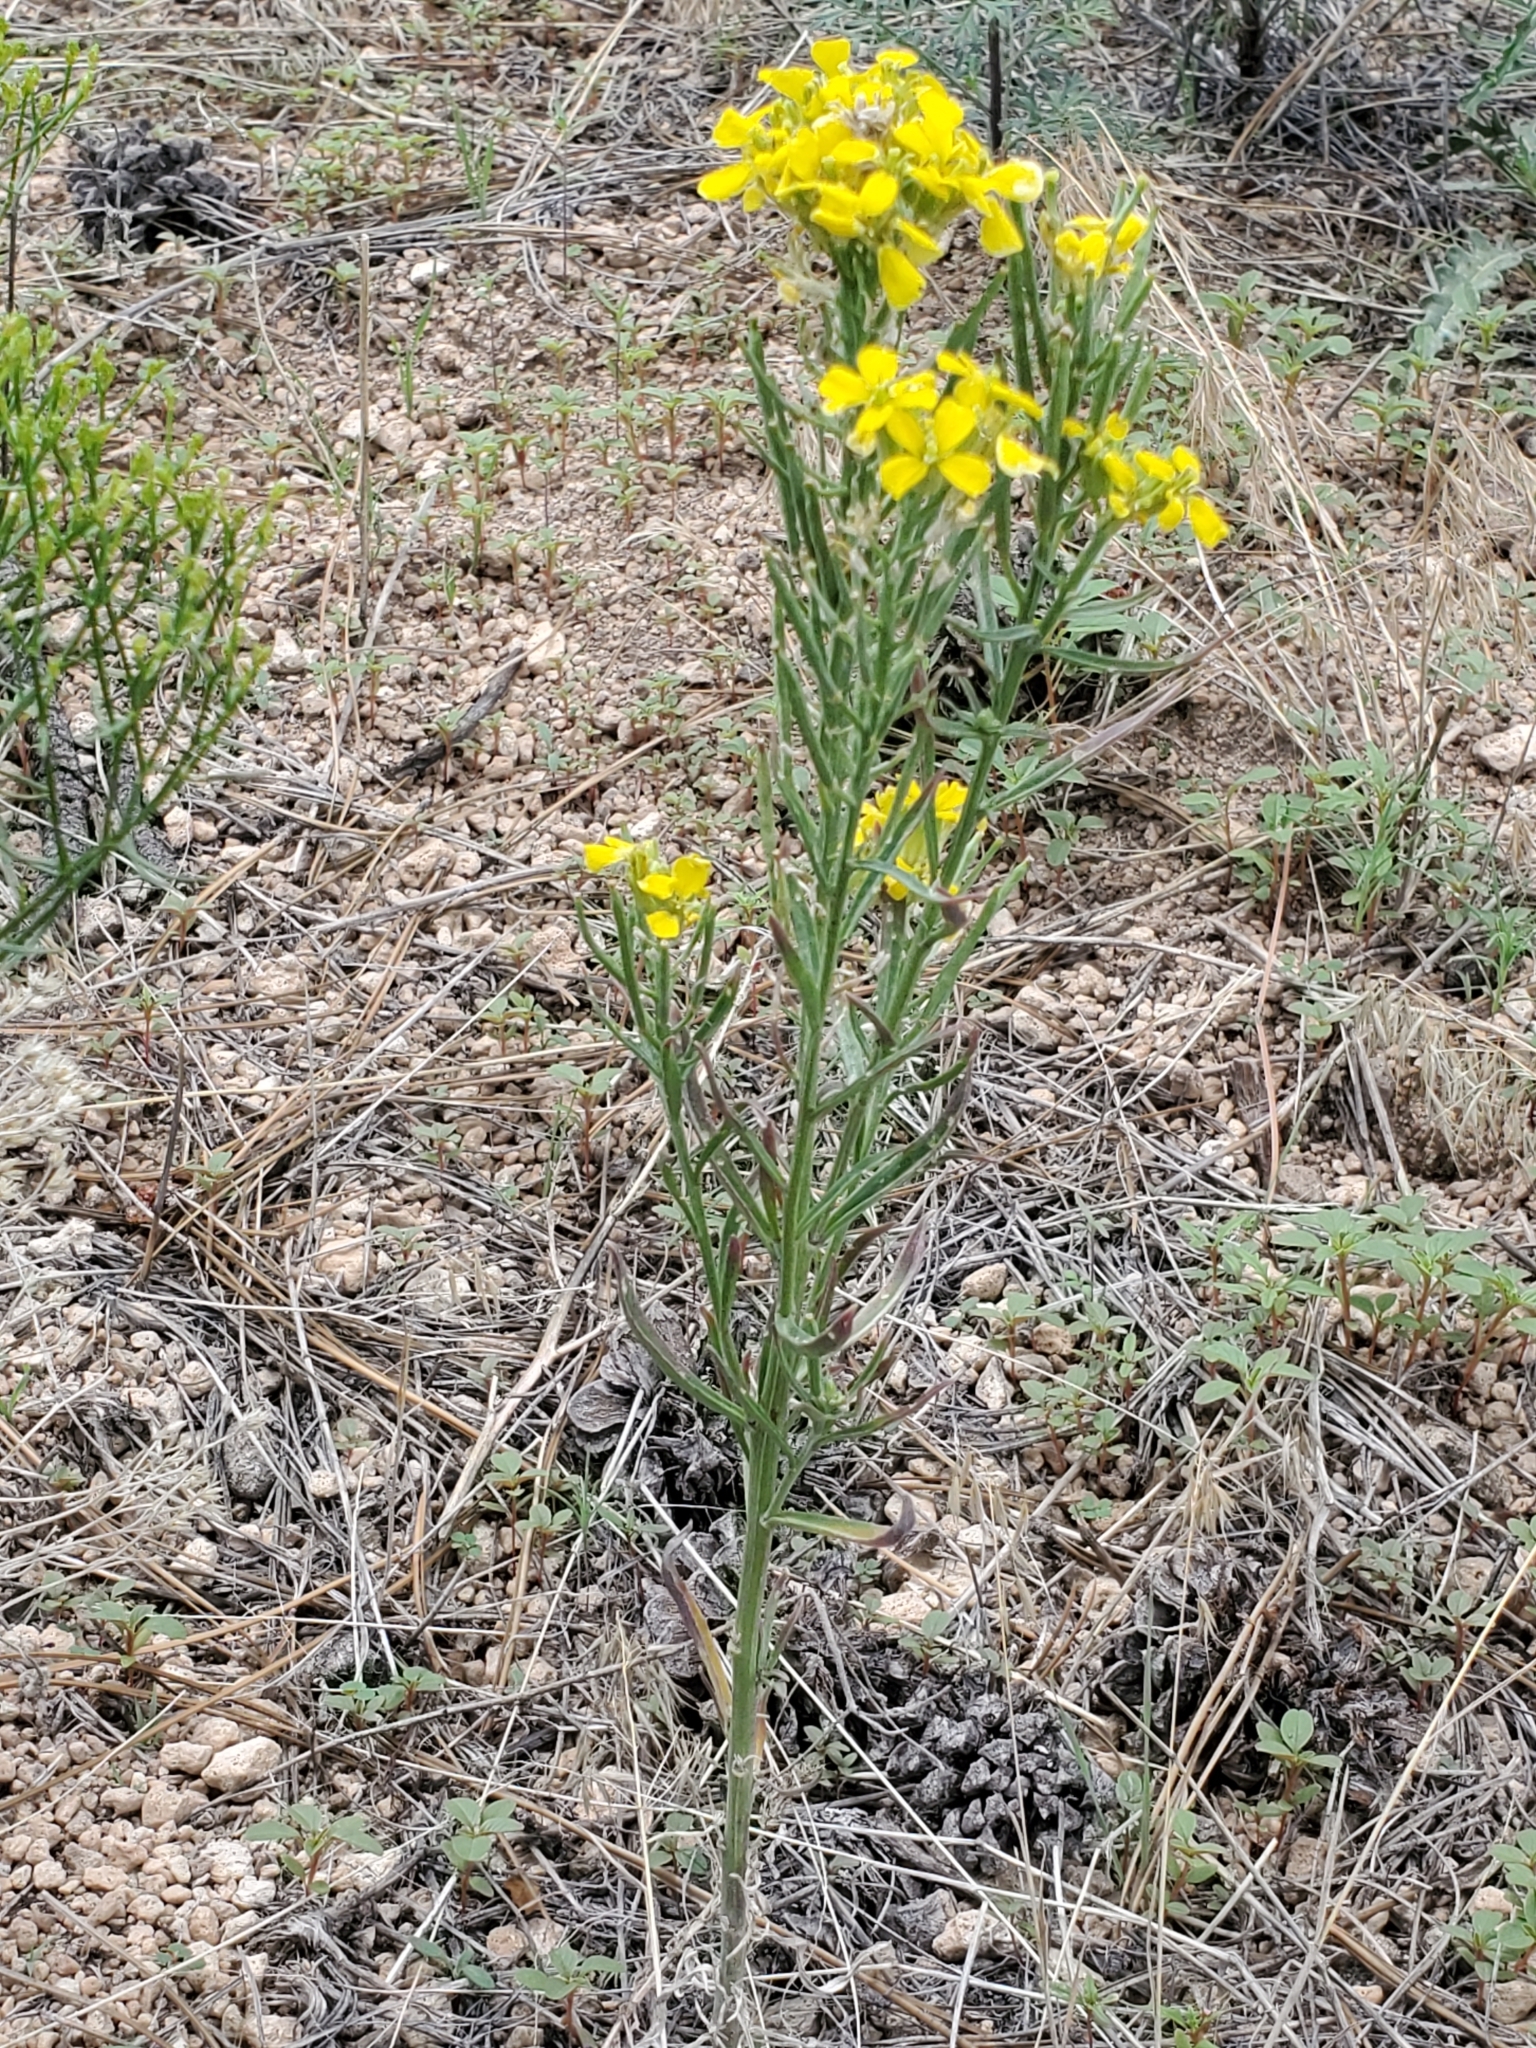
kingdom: Plantae
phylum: Tracheophyta
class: Magnoliopsida
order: Brassicales
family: Brassicaceae
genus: Erysimum
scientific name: Erysimum capitatum
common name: Western wallflower
